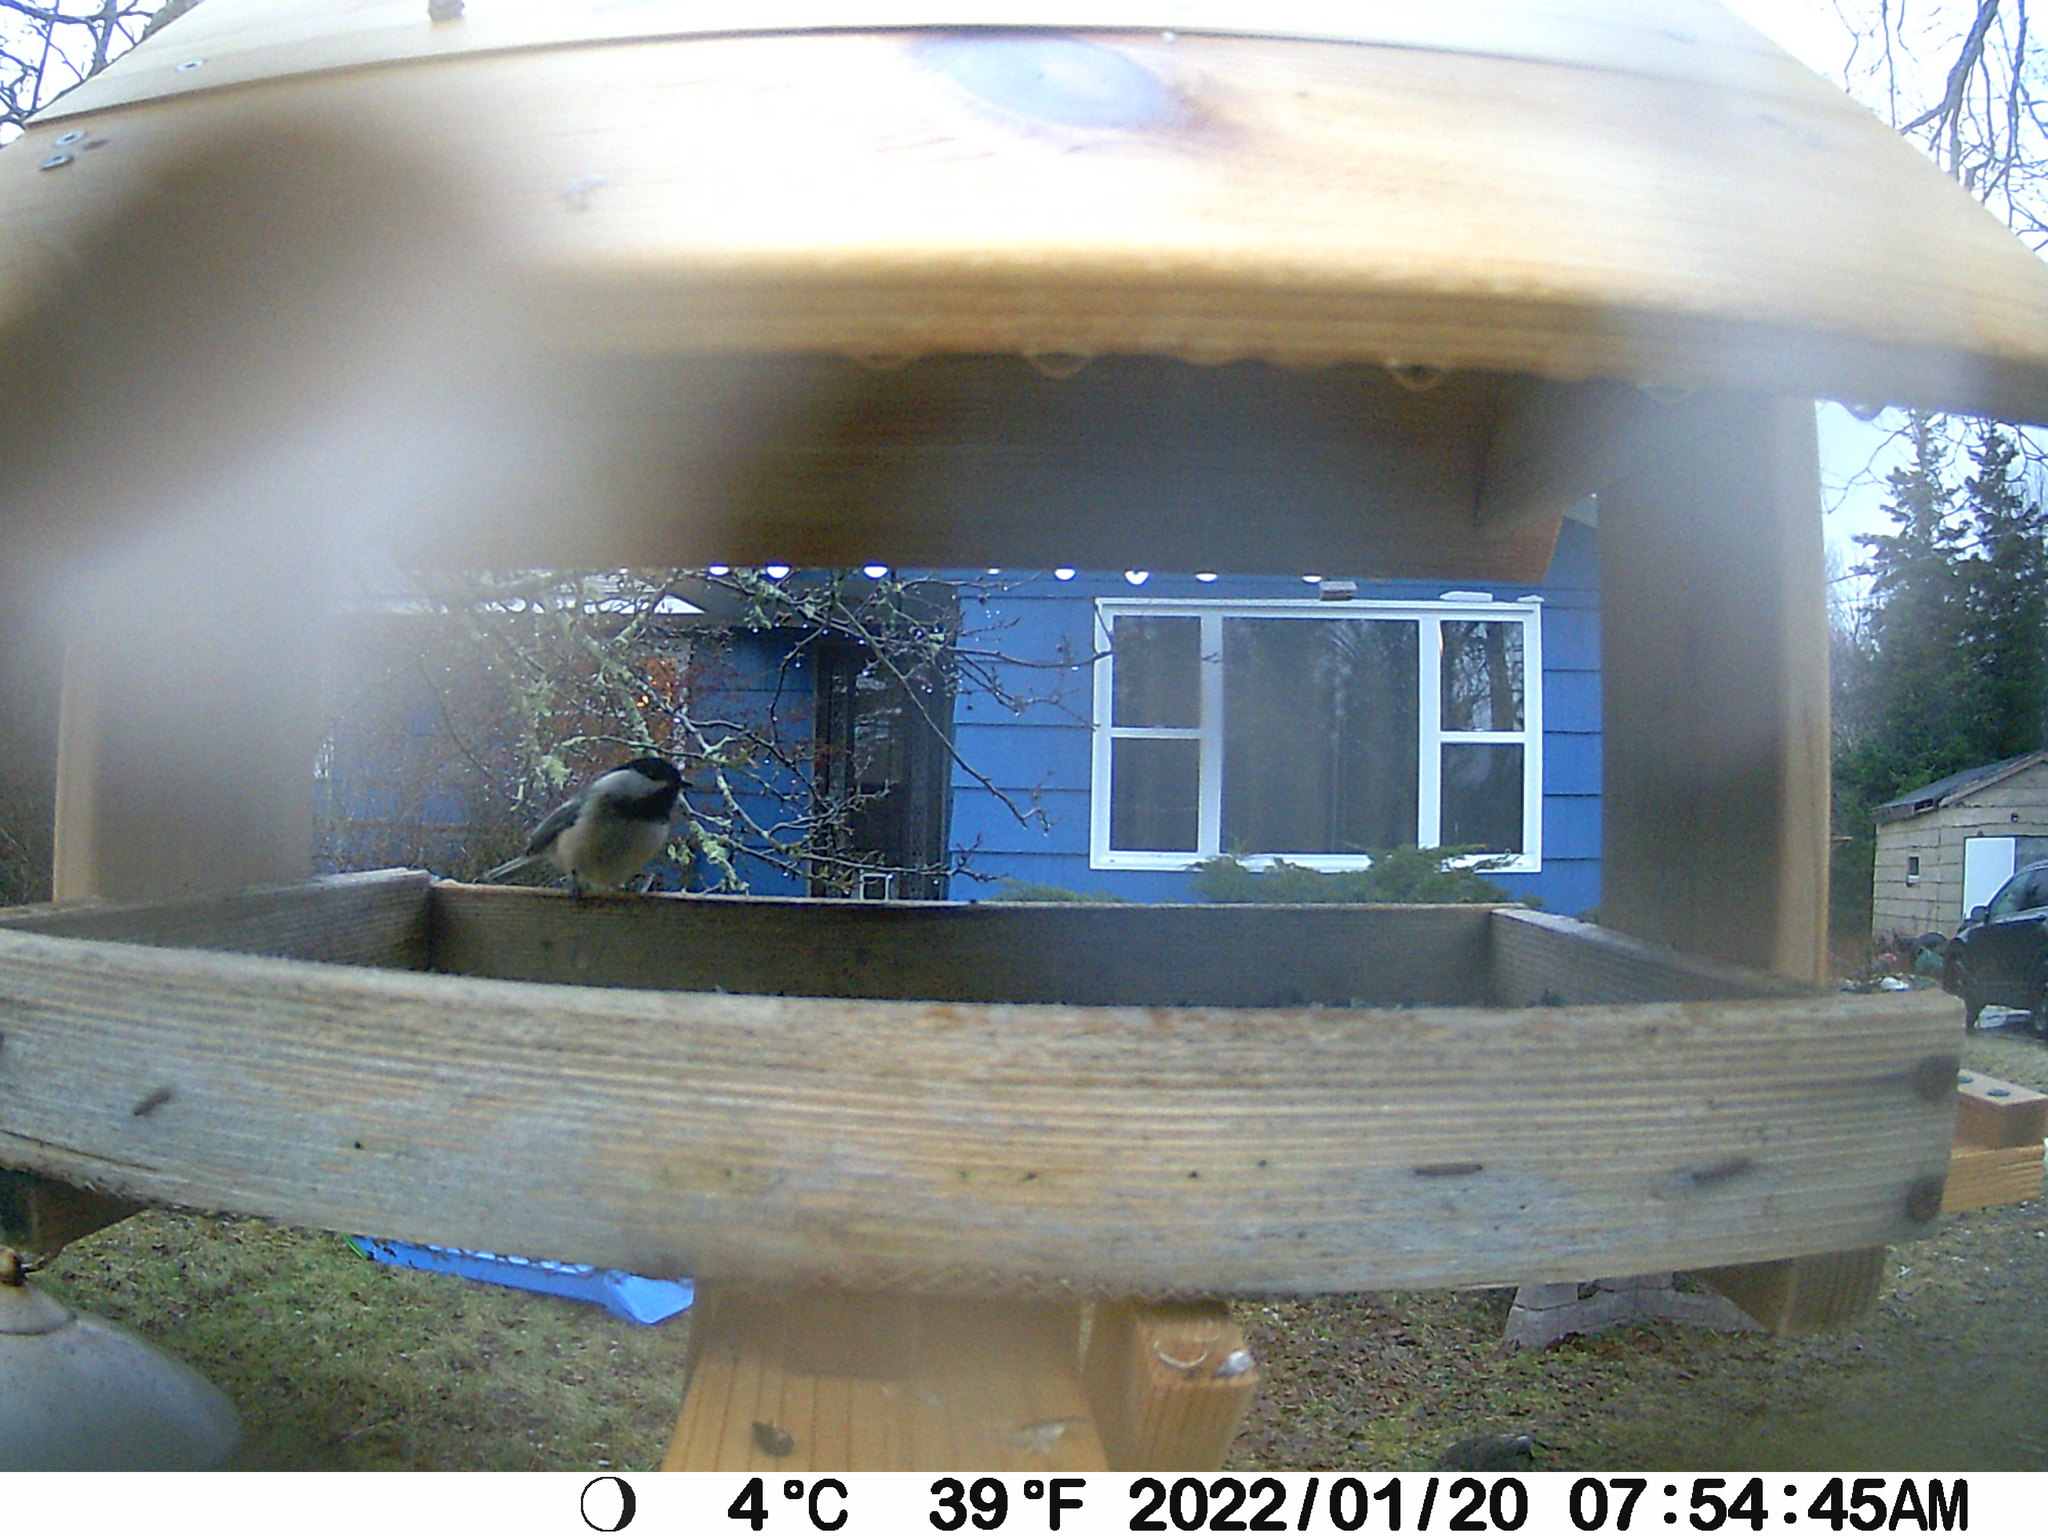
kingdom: Animalia
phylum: Chordata
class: Aves
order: Passeriformes
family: Paridae
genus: Poecile
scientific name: Poecile atricapillus
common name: Black-capped chickadee
